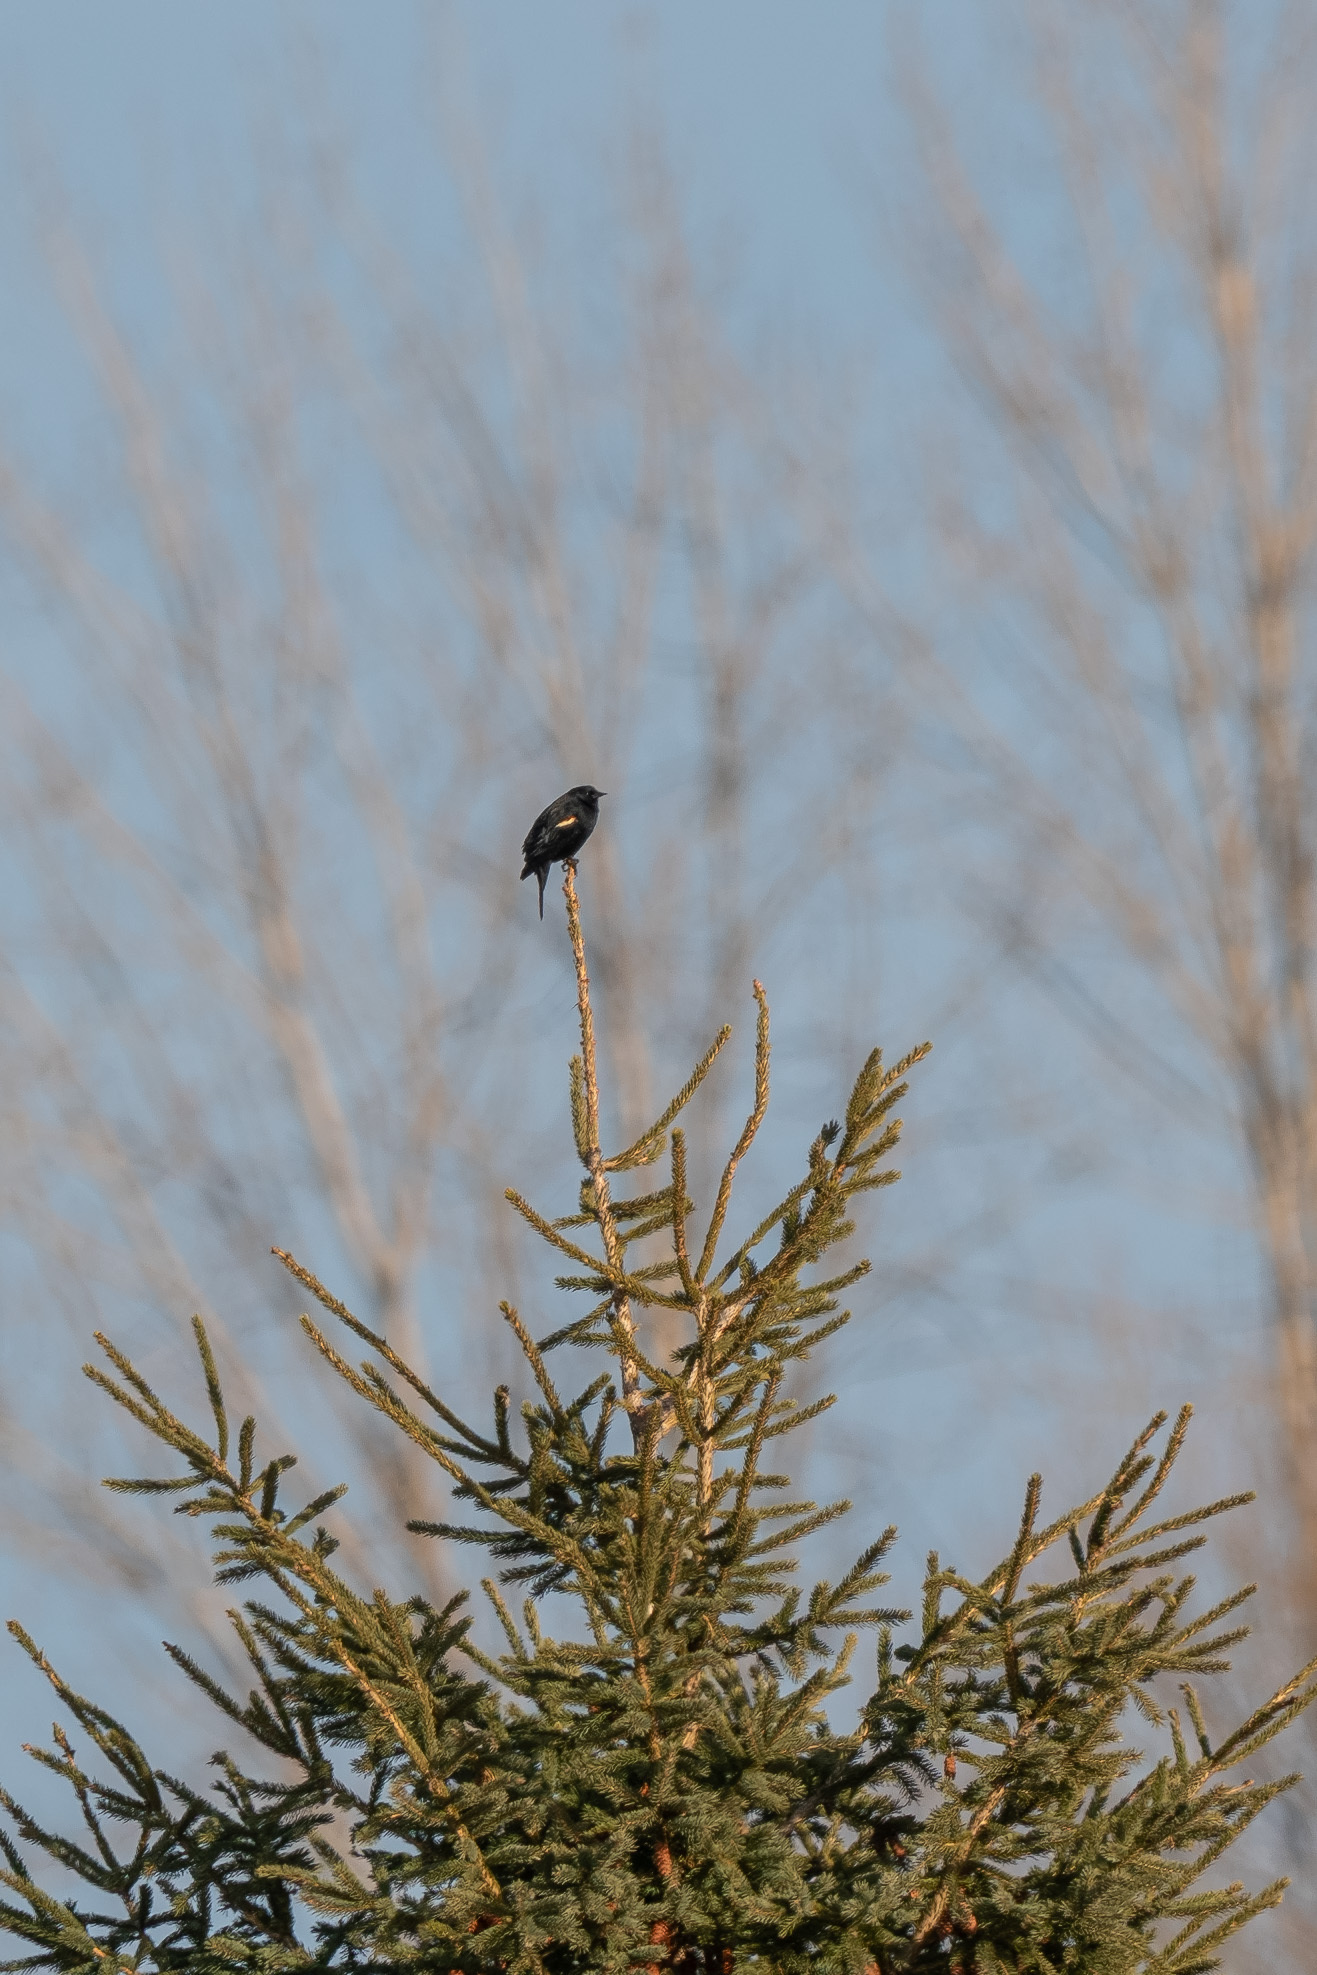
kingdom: Animalia
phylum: Chordata
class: Aves
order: Passeriformes
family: Icteridae
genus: Agelaius
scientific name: Agelaius phoeniceus
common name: Red-winged blackbird
